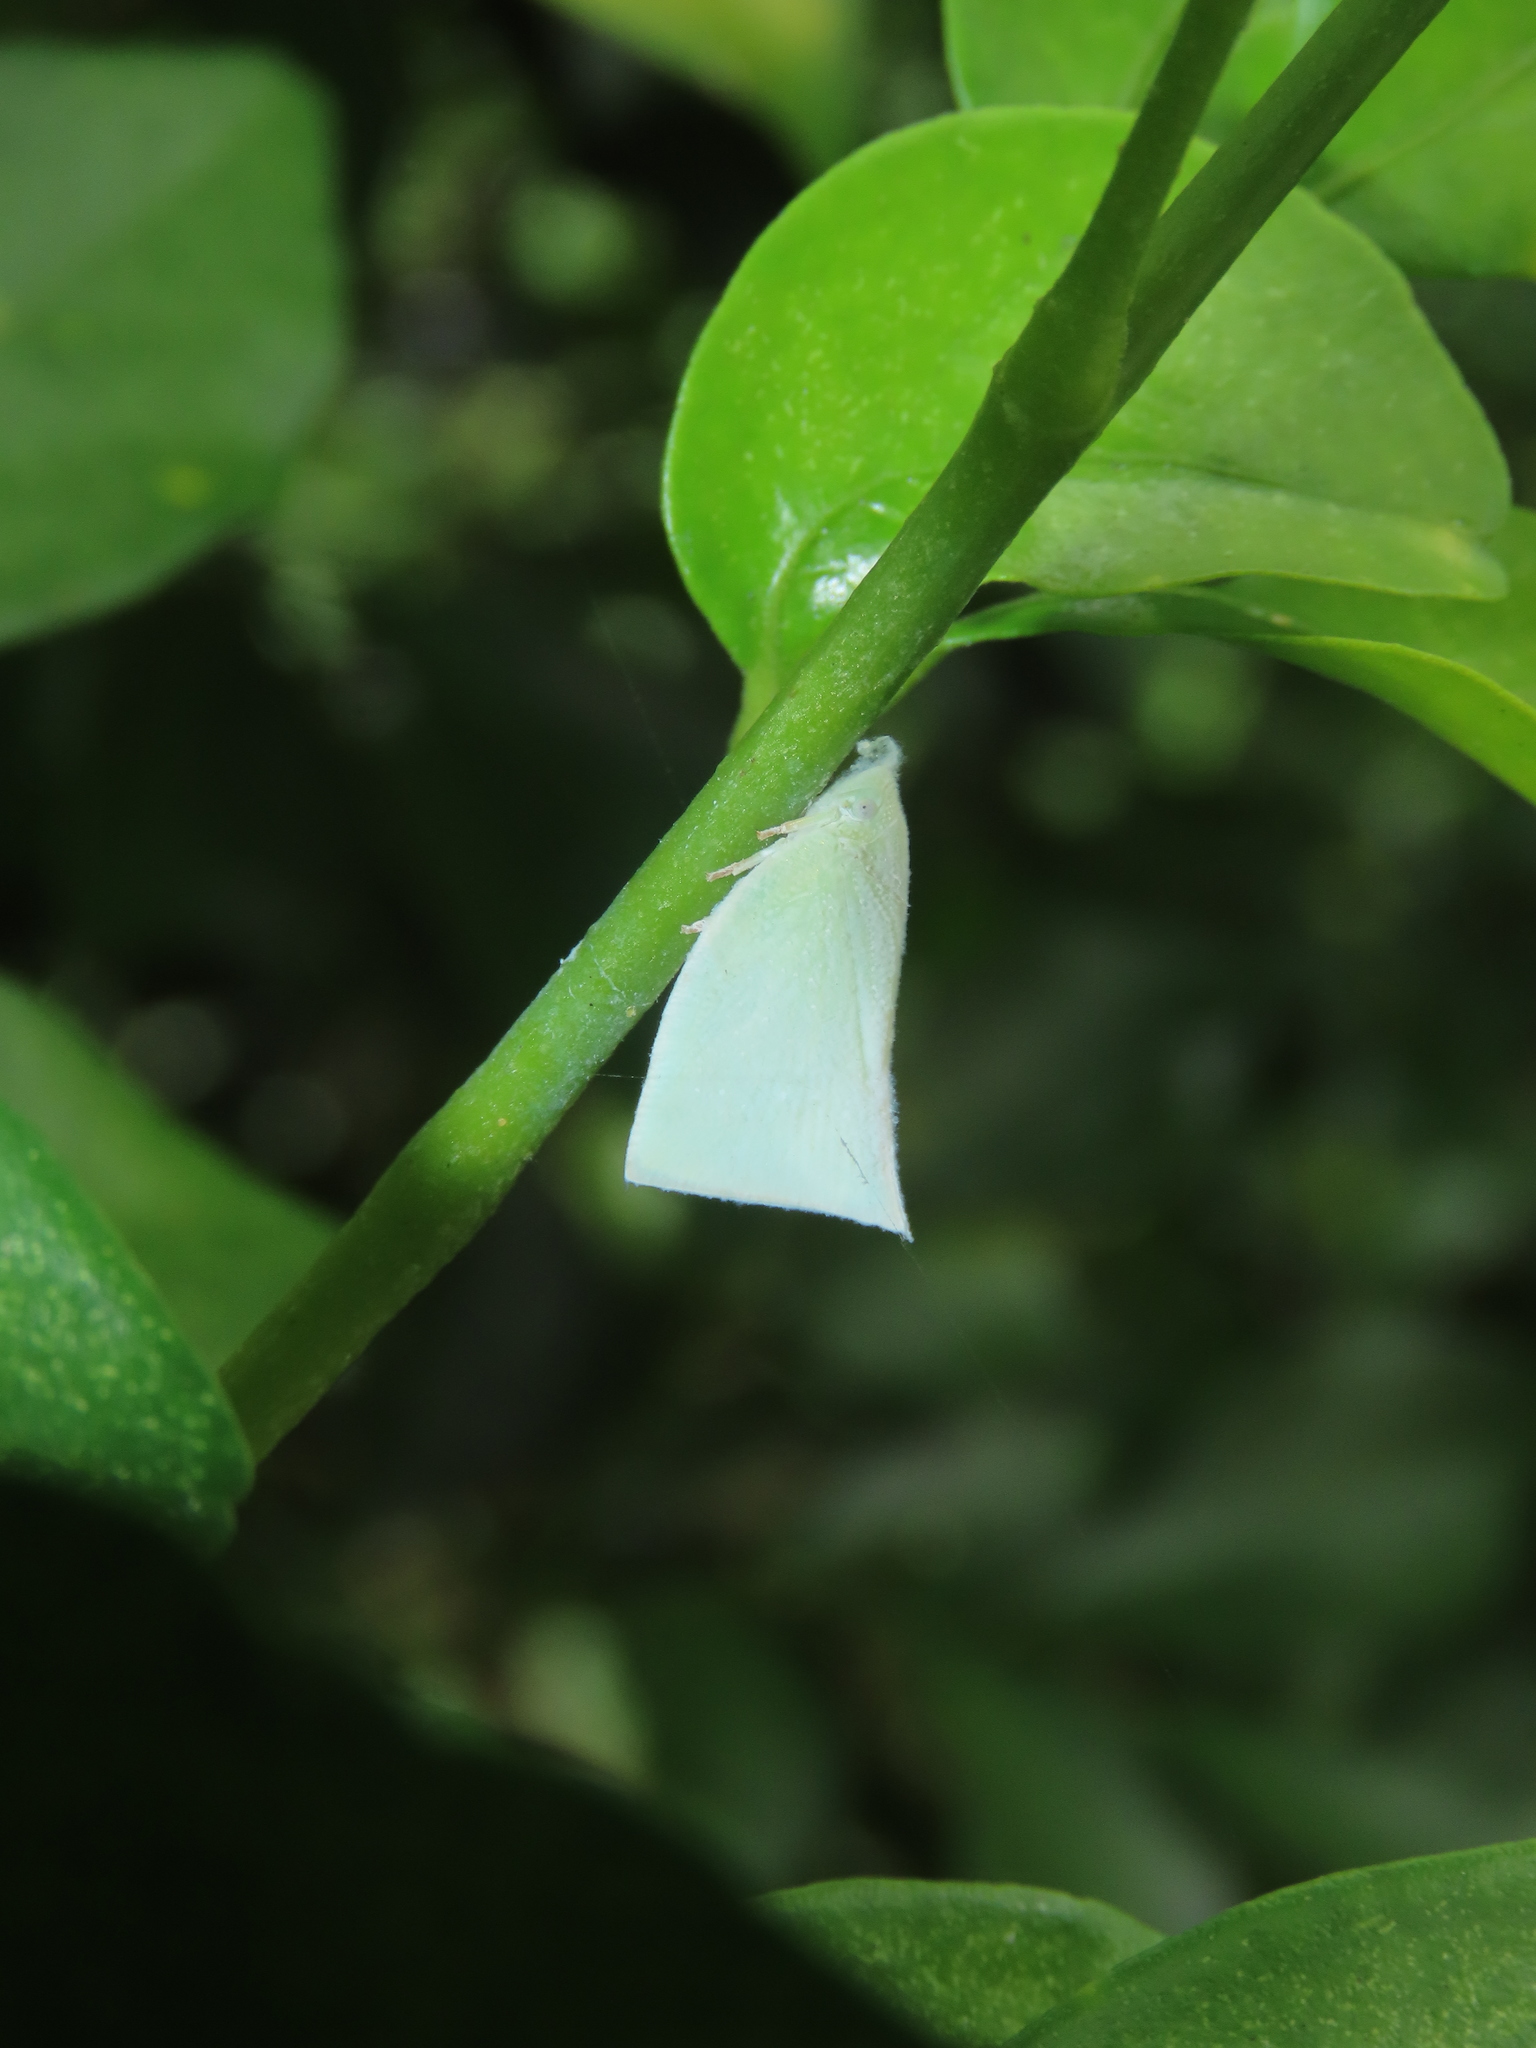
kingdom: Animalia
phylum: Arthropoda
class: Insecta
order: Hemiptera
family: Flatidae
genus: Phylliana
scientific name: Phylliana alba
